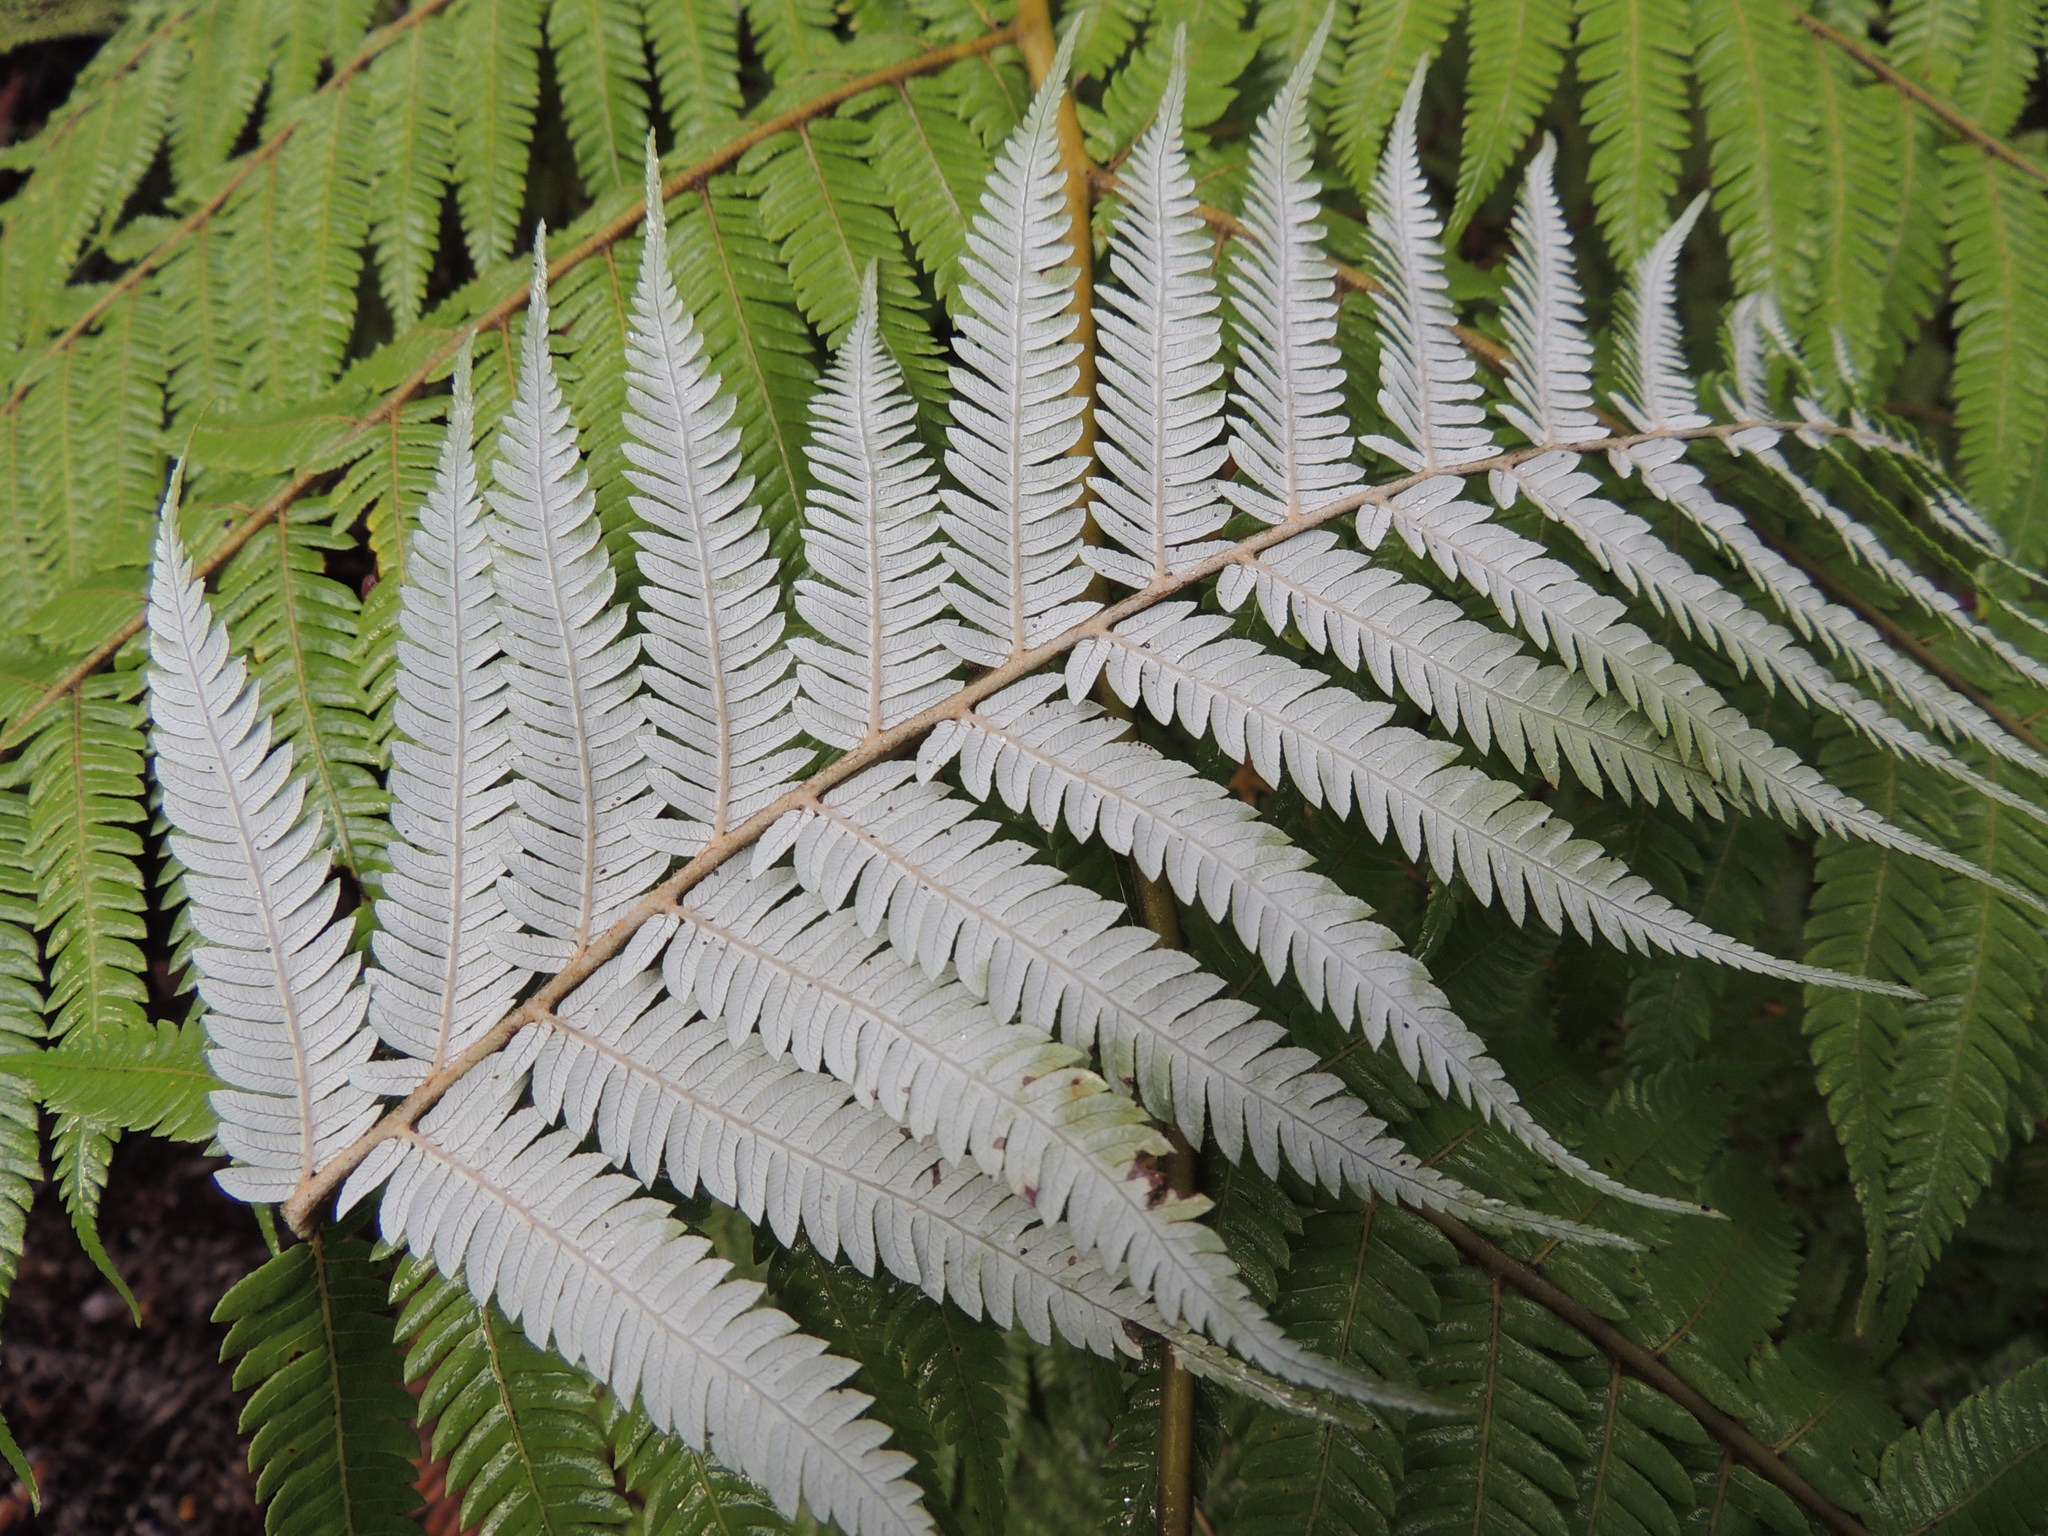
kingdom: Plantae
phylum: Tracheophyta
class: Polypodiopsida
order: Cyatheales
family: Cyatheaceae
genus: Alsophila
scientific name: Alsophila dealbata
